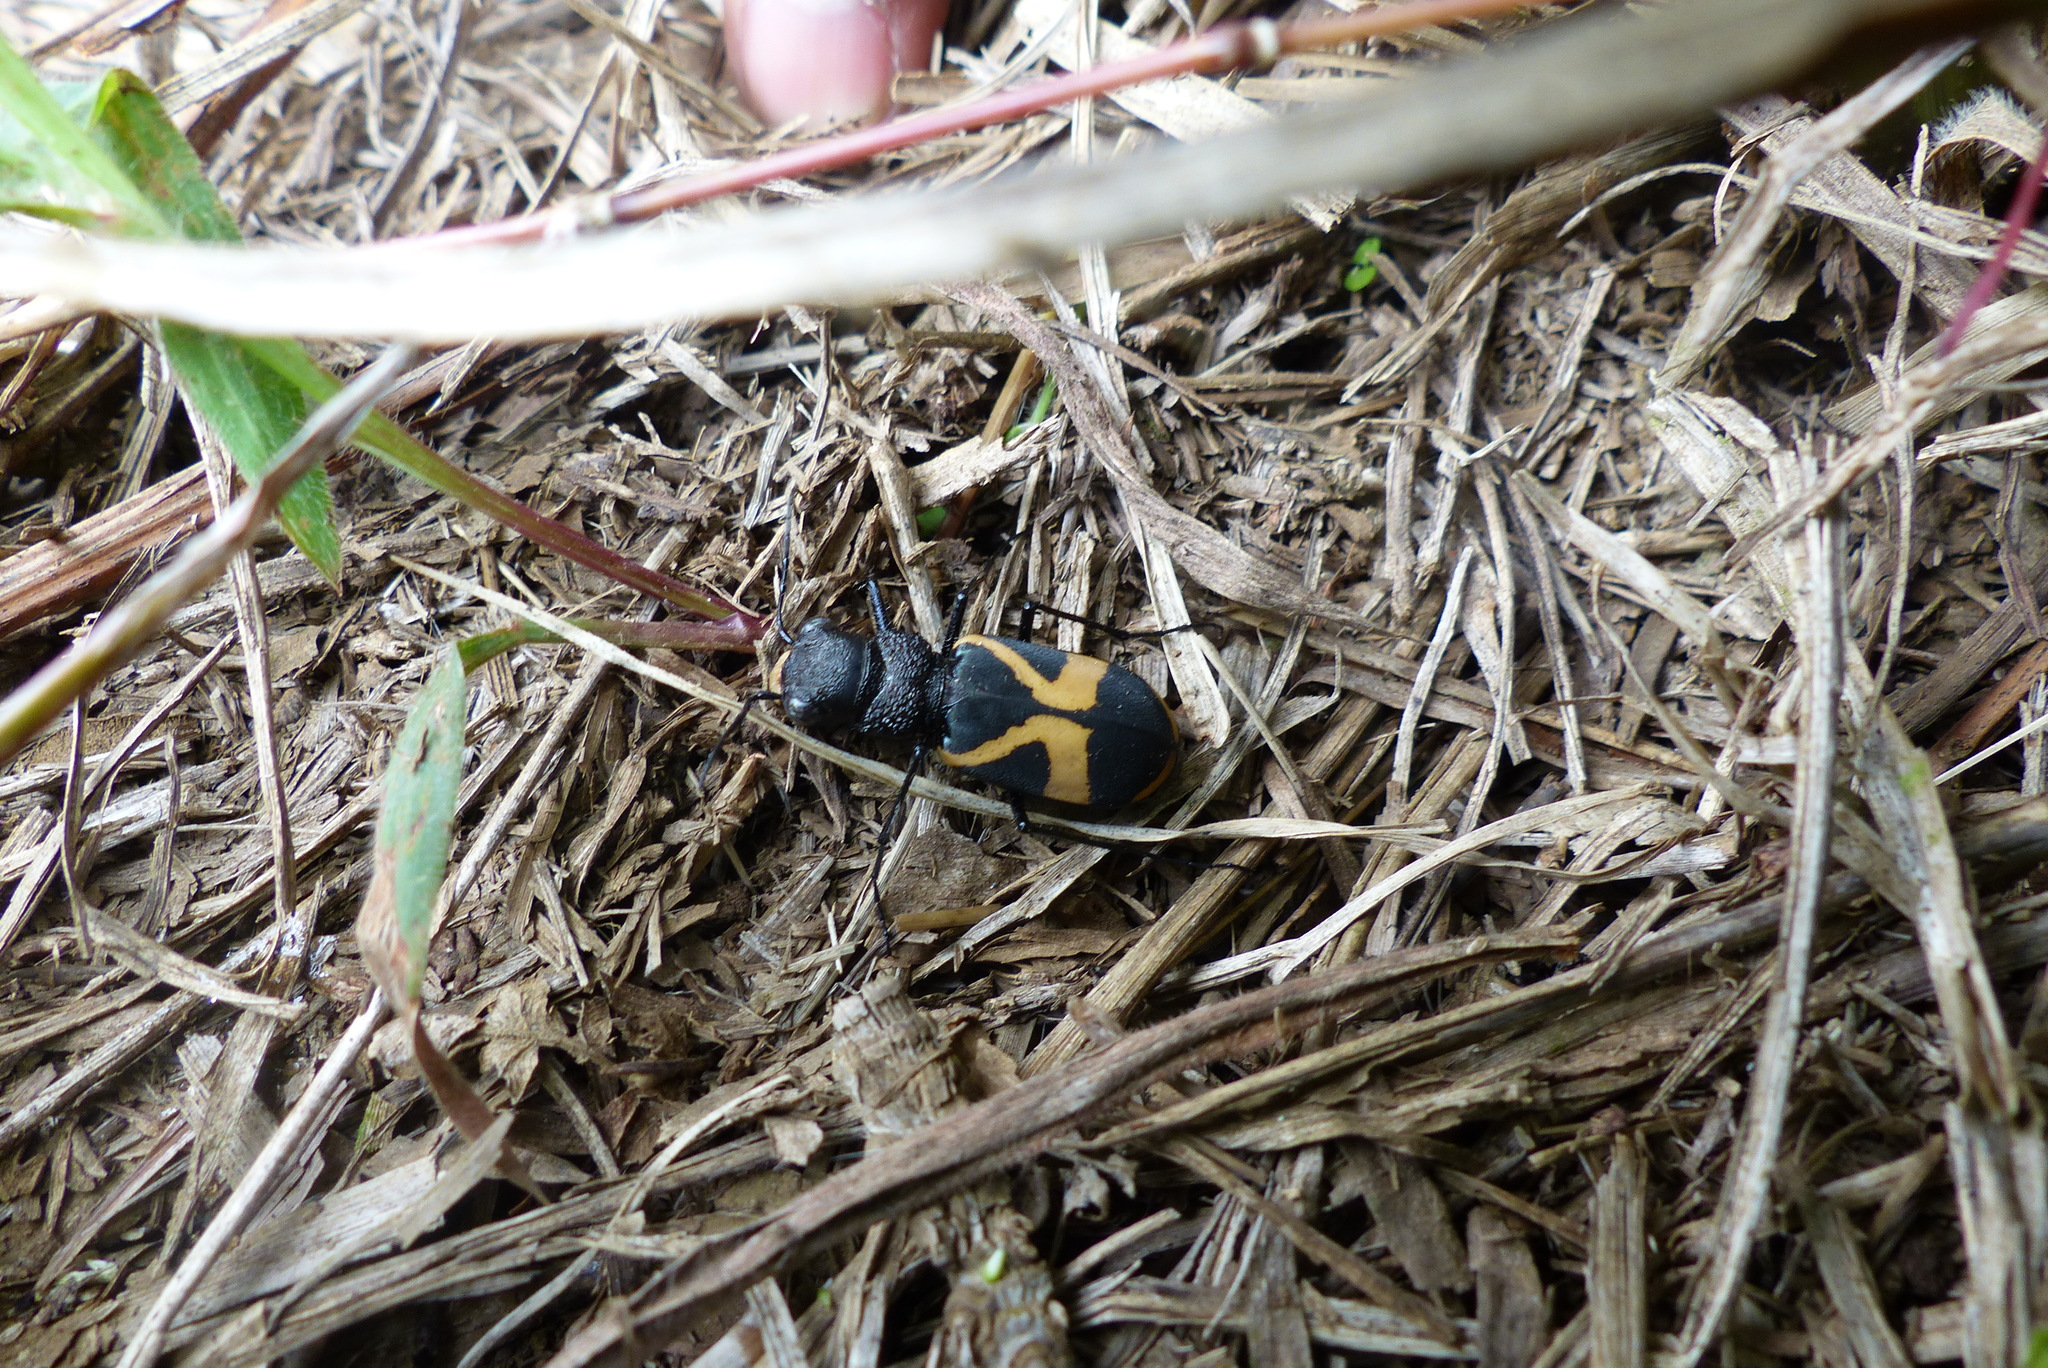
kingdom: Animalia
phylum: Arthropoda
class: Insecta
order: Coleoptera
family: Carabidae
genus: Cicindela
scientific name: Cicindela princeps
